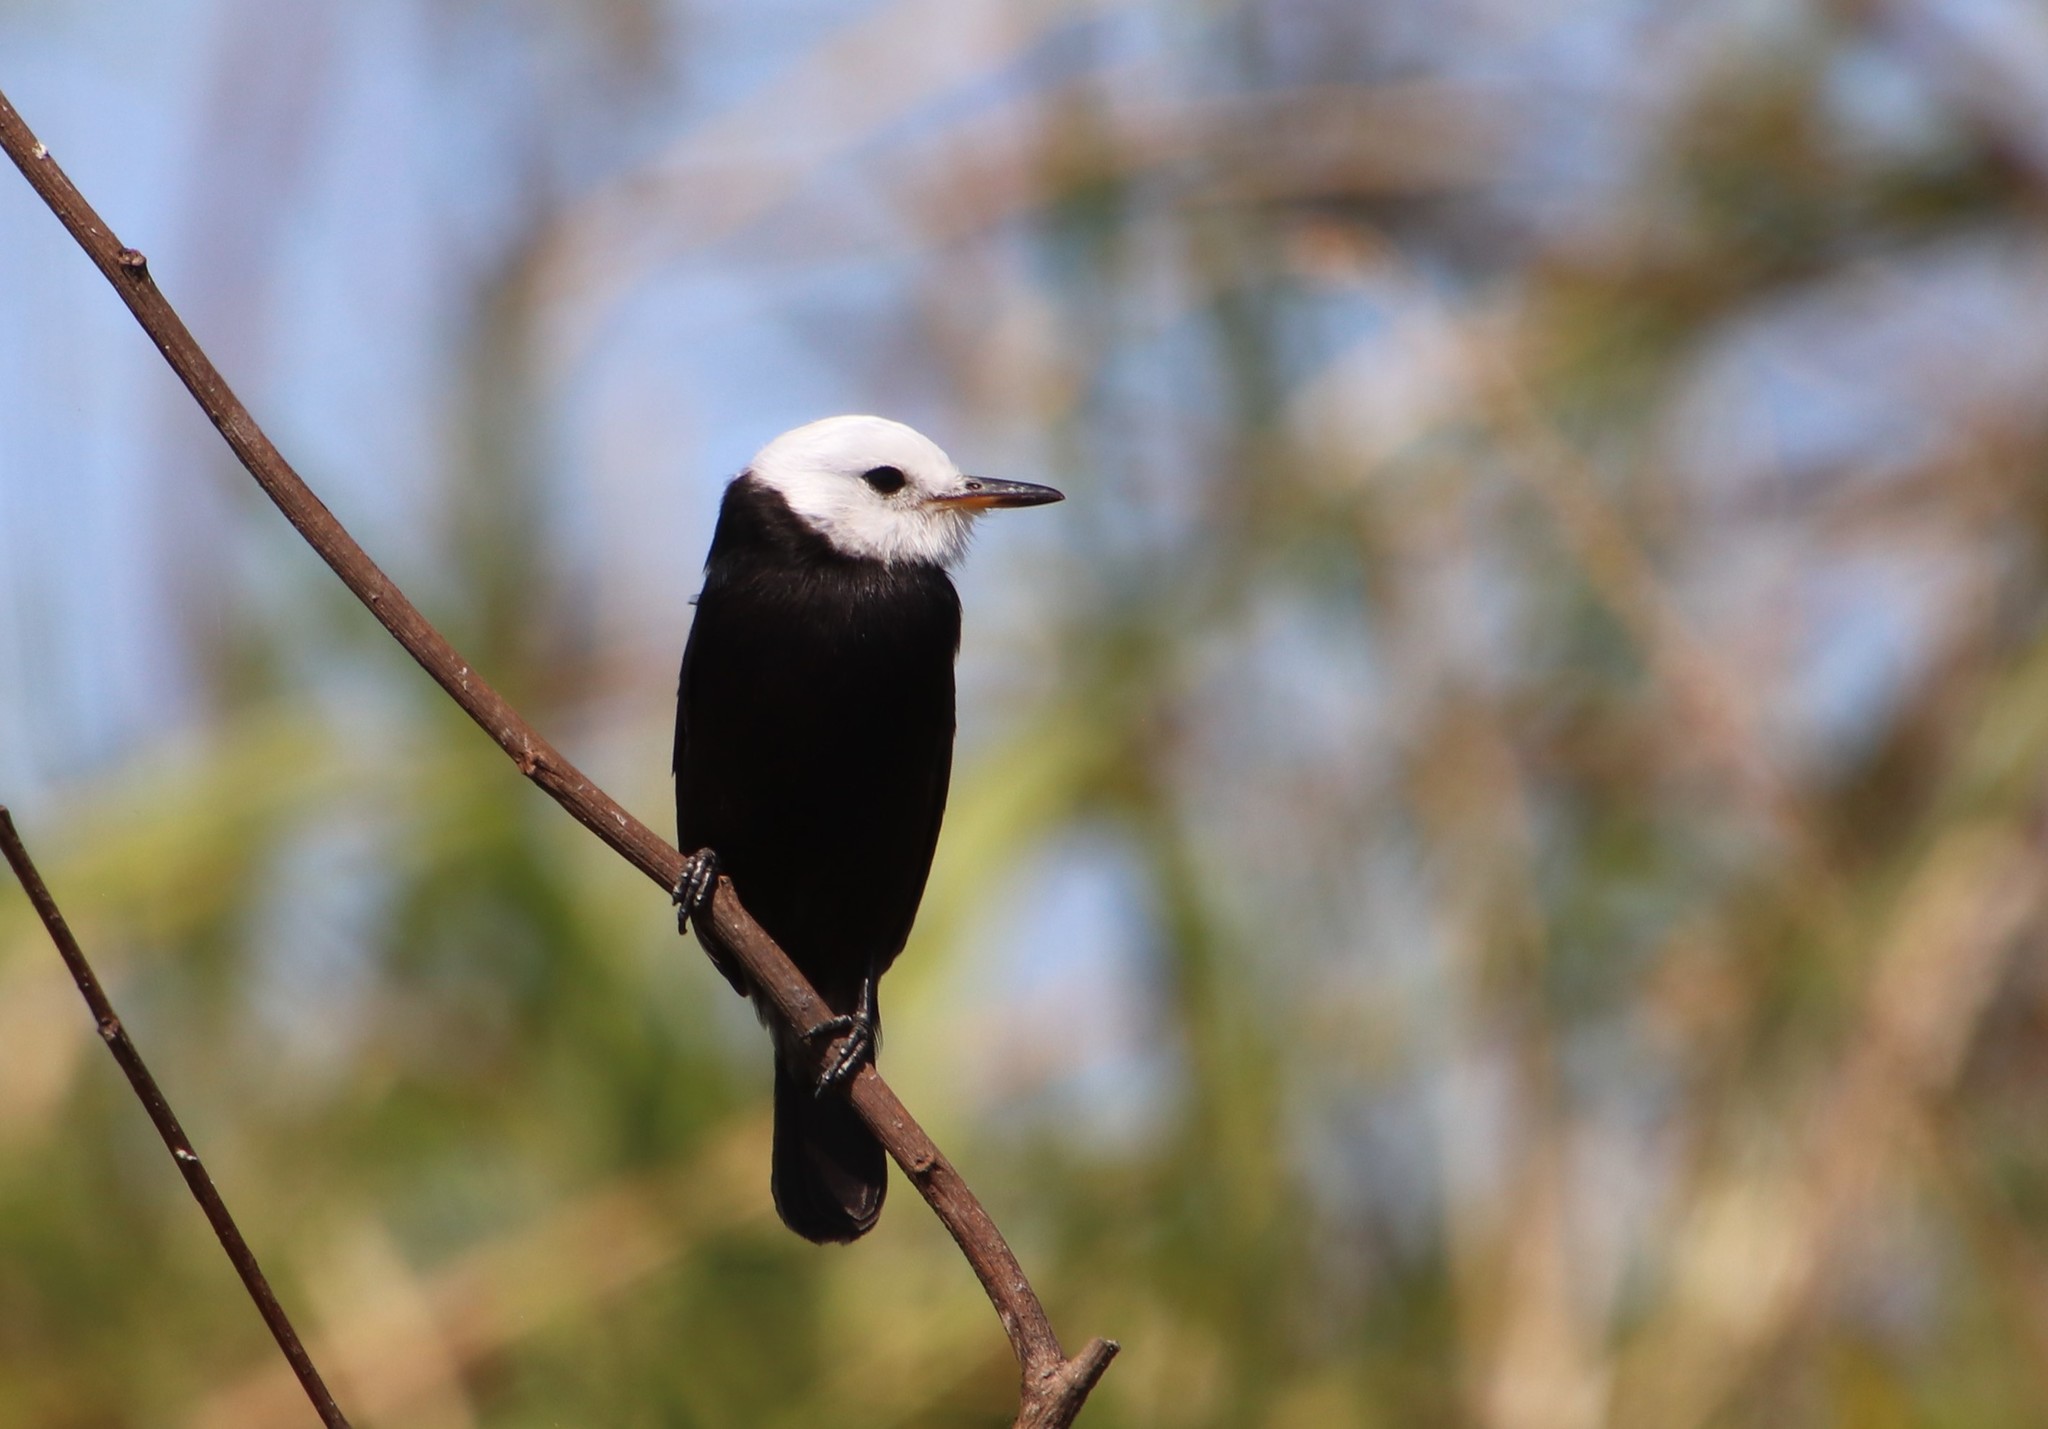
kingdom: Animalia
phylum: Chordata
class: Aves
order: Passeriformes
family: Tyrannidae
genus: Arundinicola
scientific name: Arundinicola leucocephala
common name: White-headed marsh tyrant
